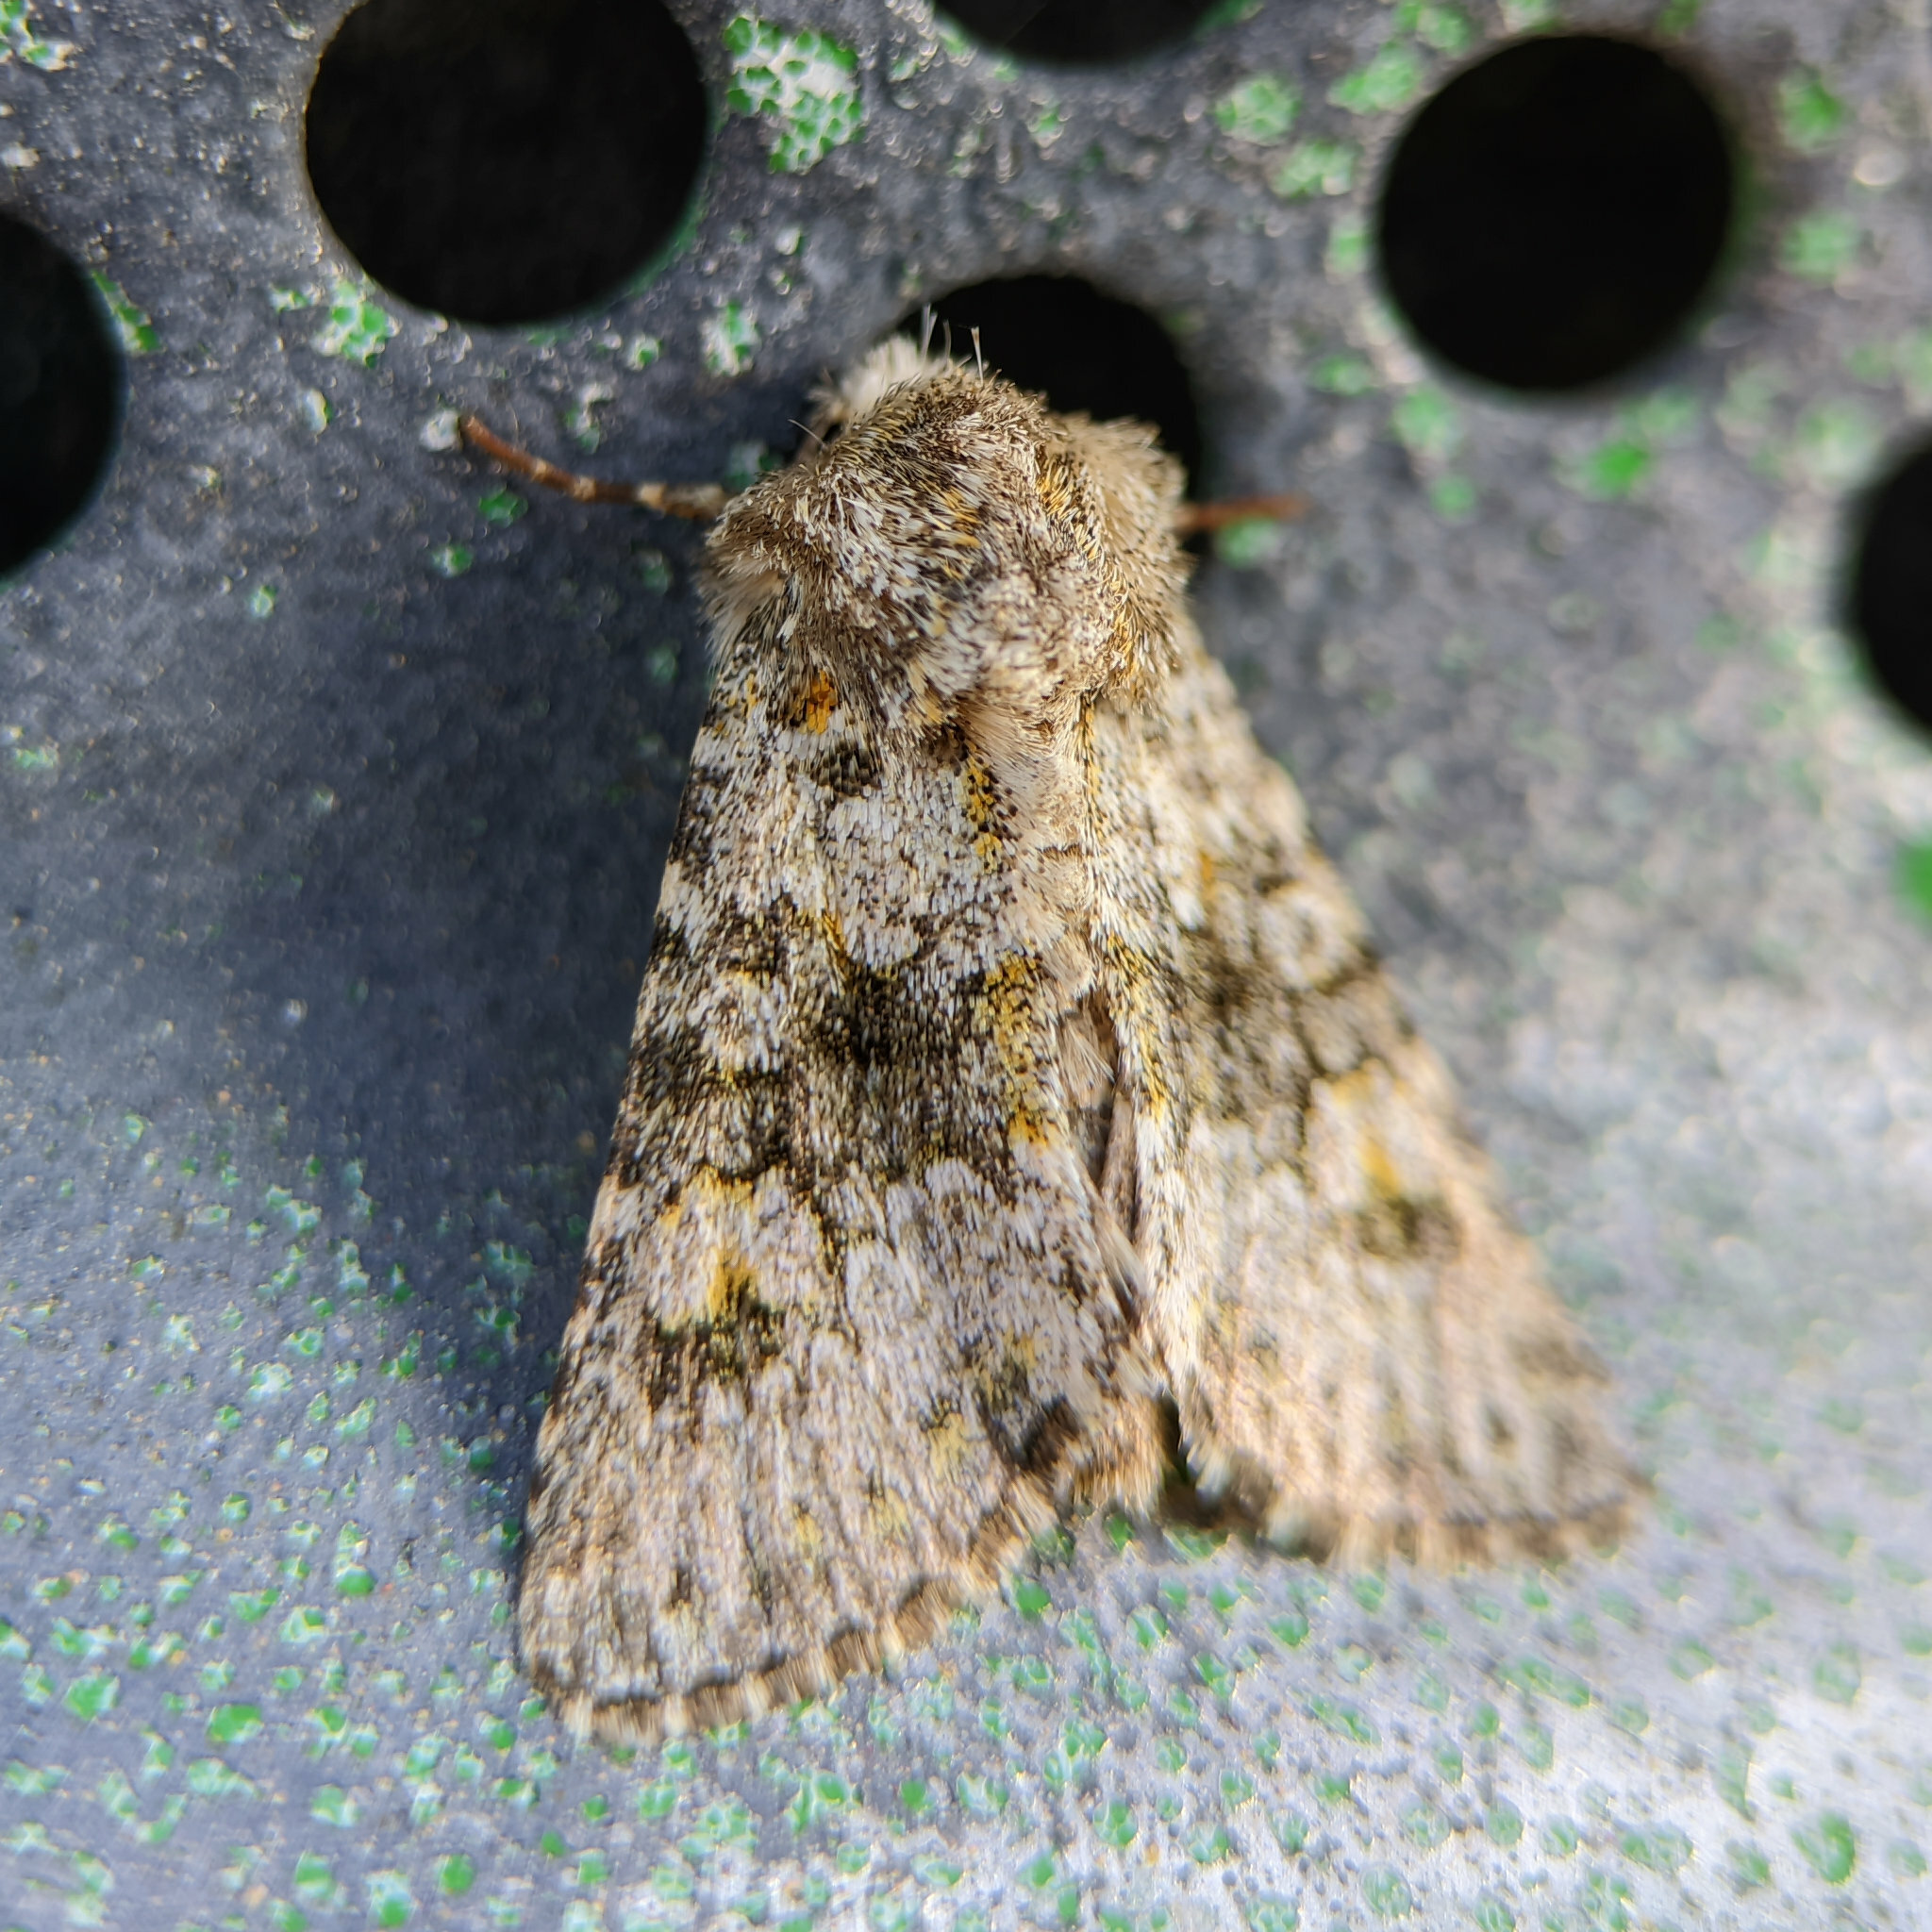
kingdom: Animalia
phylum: Arthropoda
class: Insecta
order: Lepidoptera
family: Noctuidae
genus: Hecatera
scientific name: Hecatera dysodea
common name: Small ranunculus
